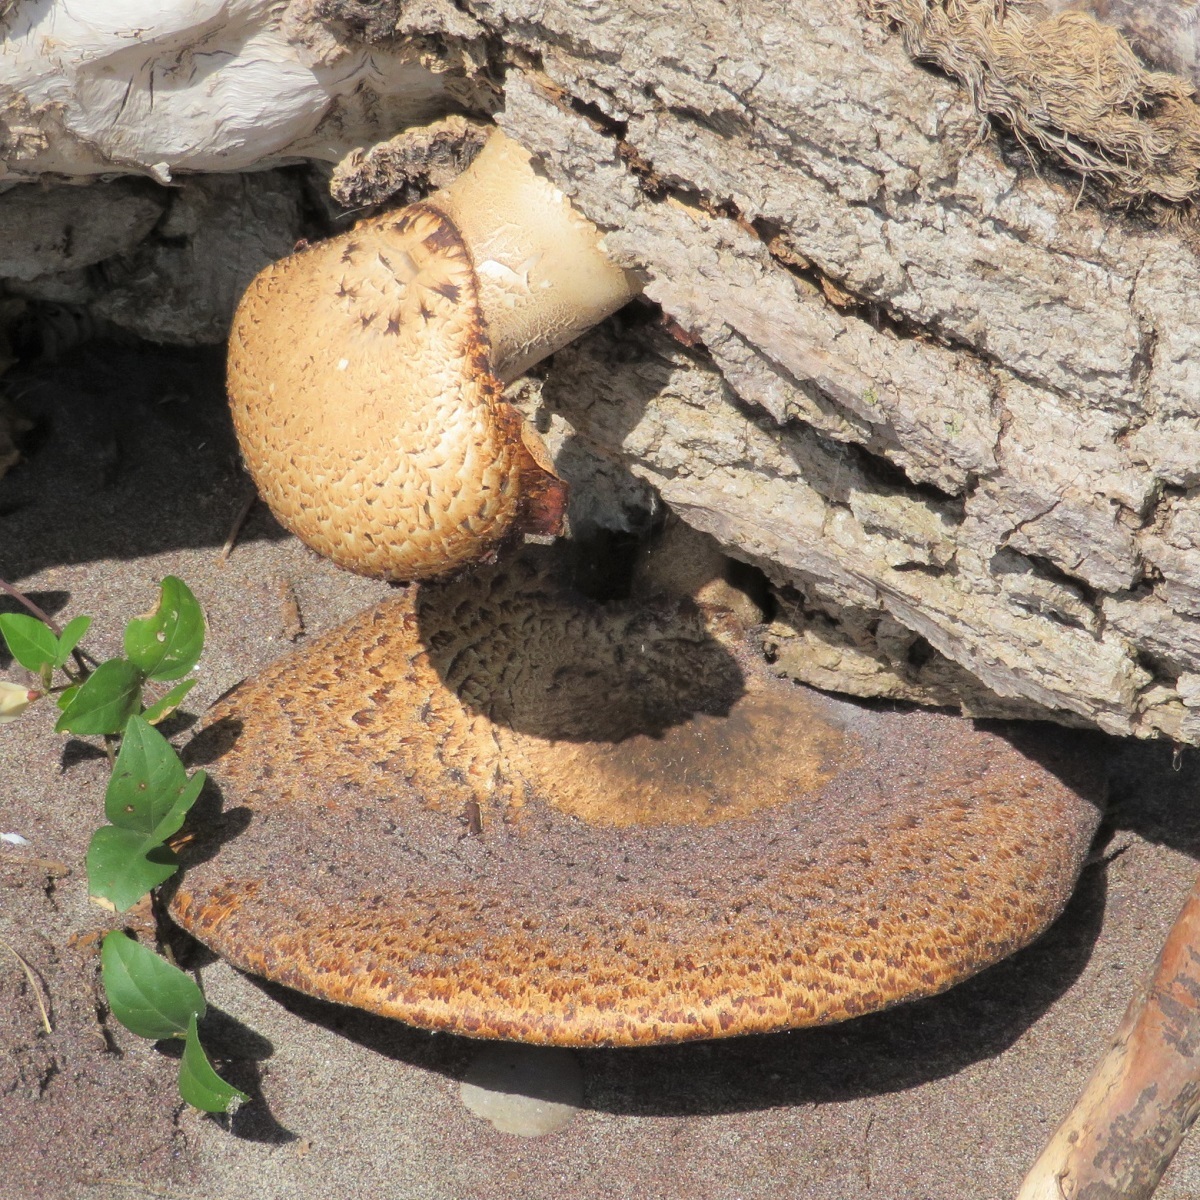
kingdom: Fungi
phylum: Basidiomycota
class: Agaricomycetes
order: Polyporales
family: Polyporaceae
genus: Cerioporus
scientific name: Cerioporus squamosus
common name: Dryad's saddle
